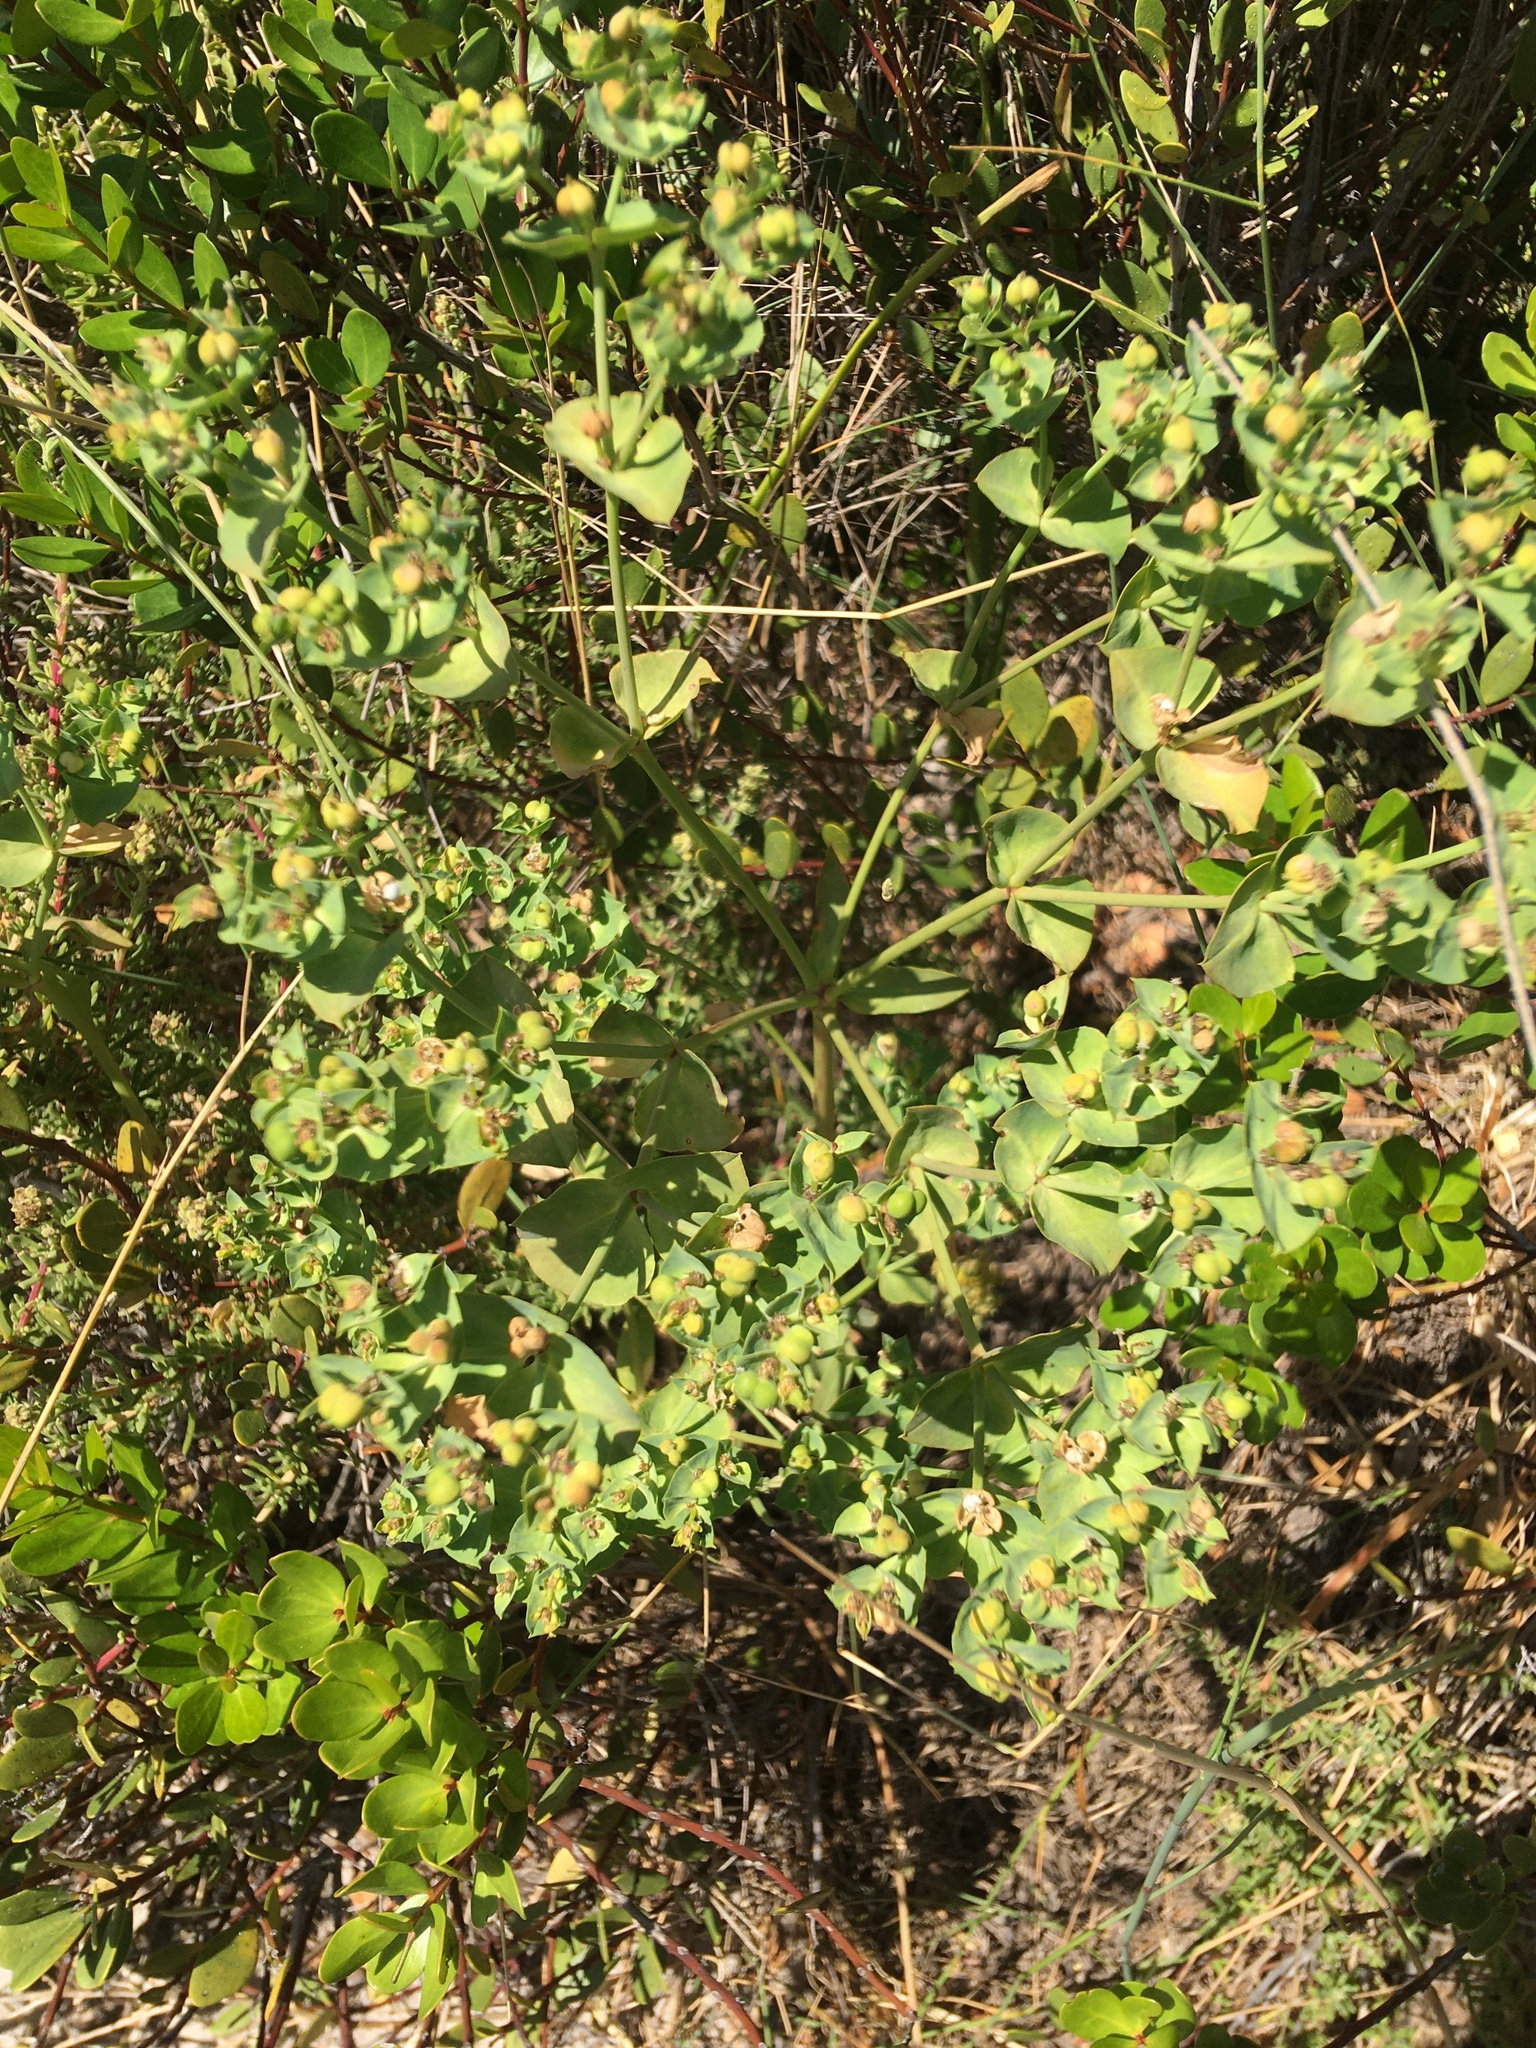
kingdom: Plantae
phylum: Tracheophyta
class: Magnoliopsida
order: Malpighiales
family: Euphorbiaceae
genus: Euphorbia
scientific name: Euphorbia terracina
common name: Geraldton carnation weed
